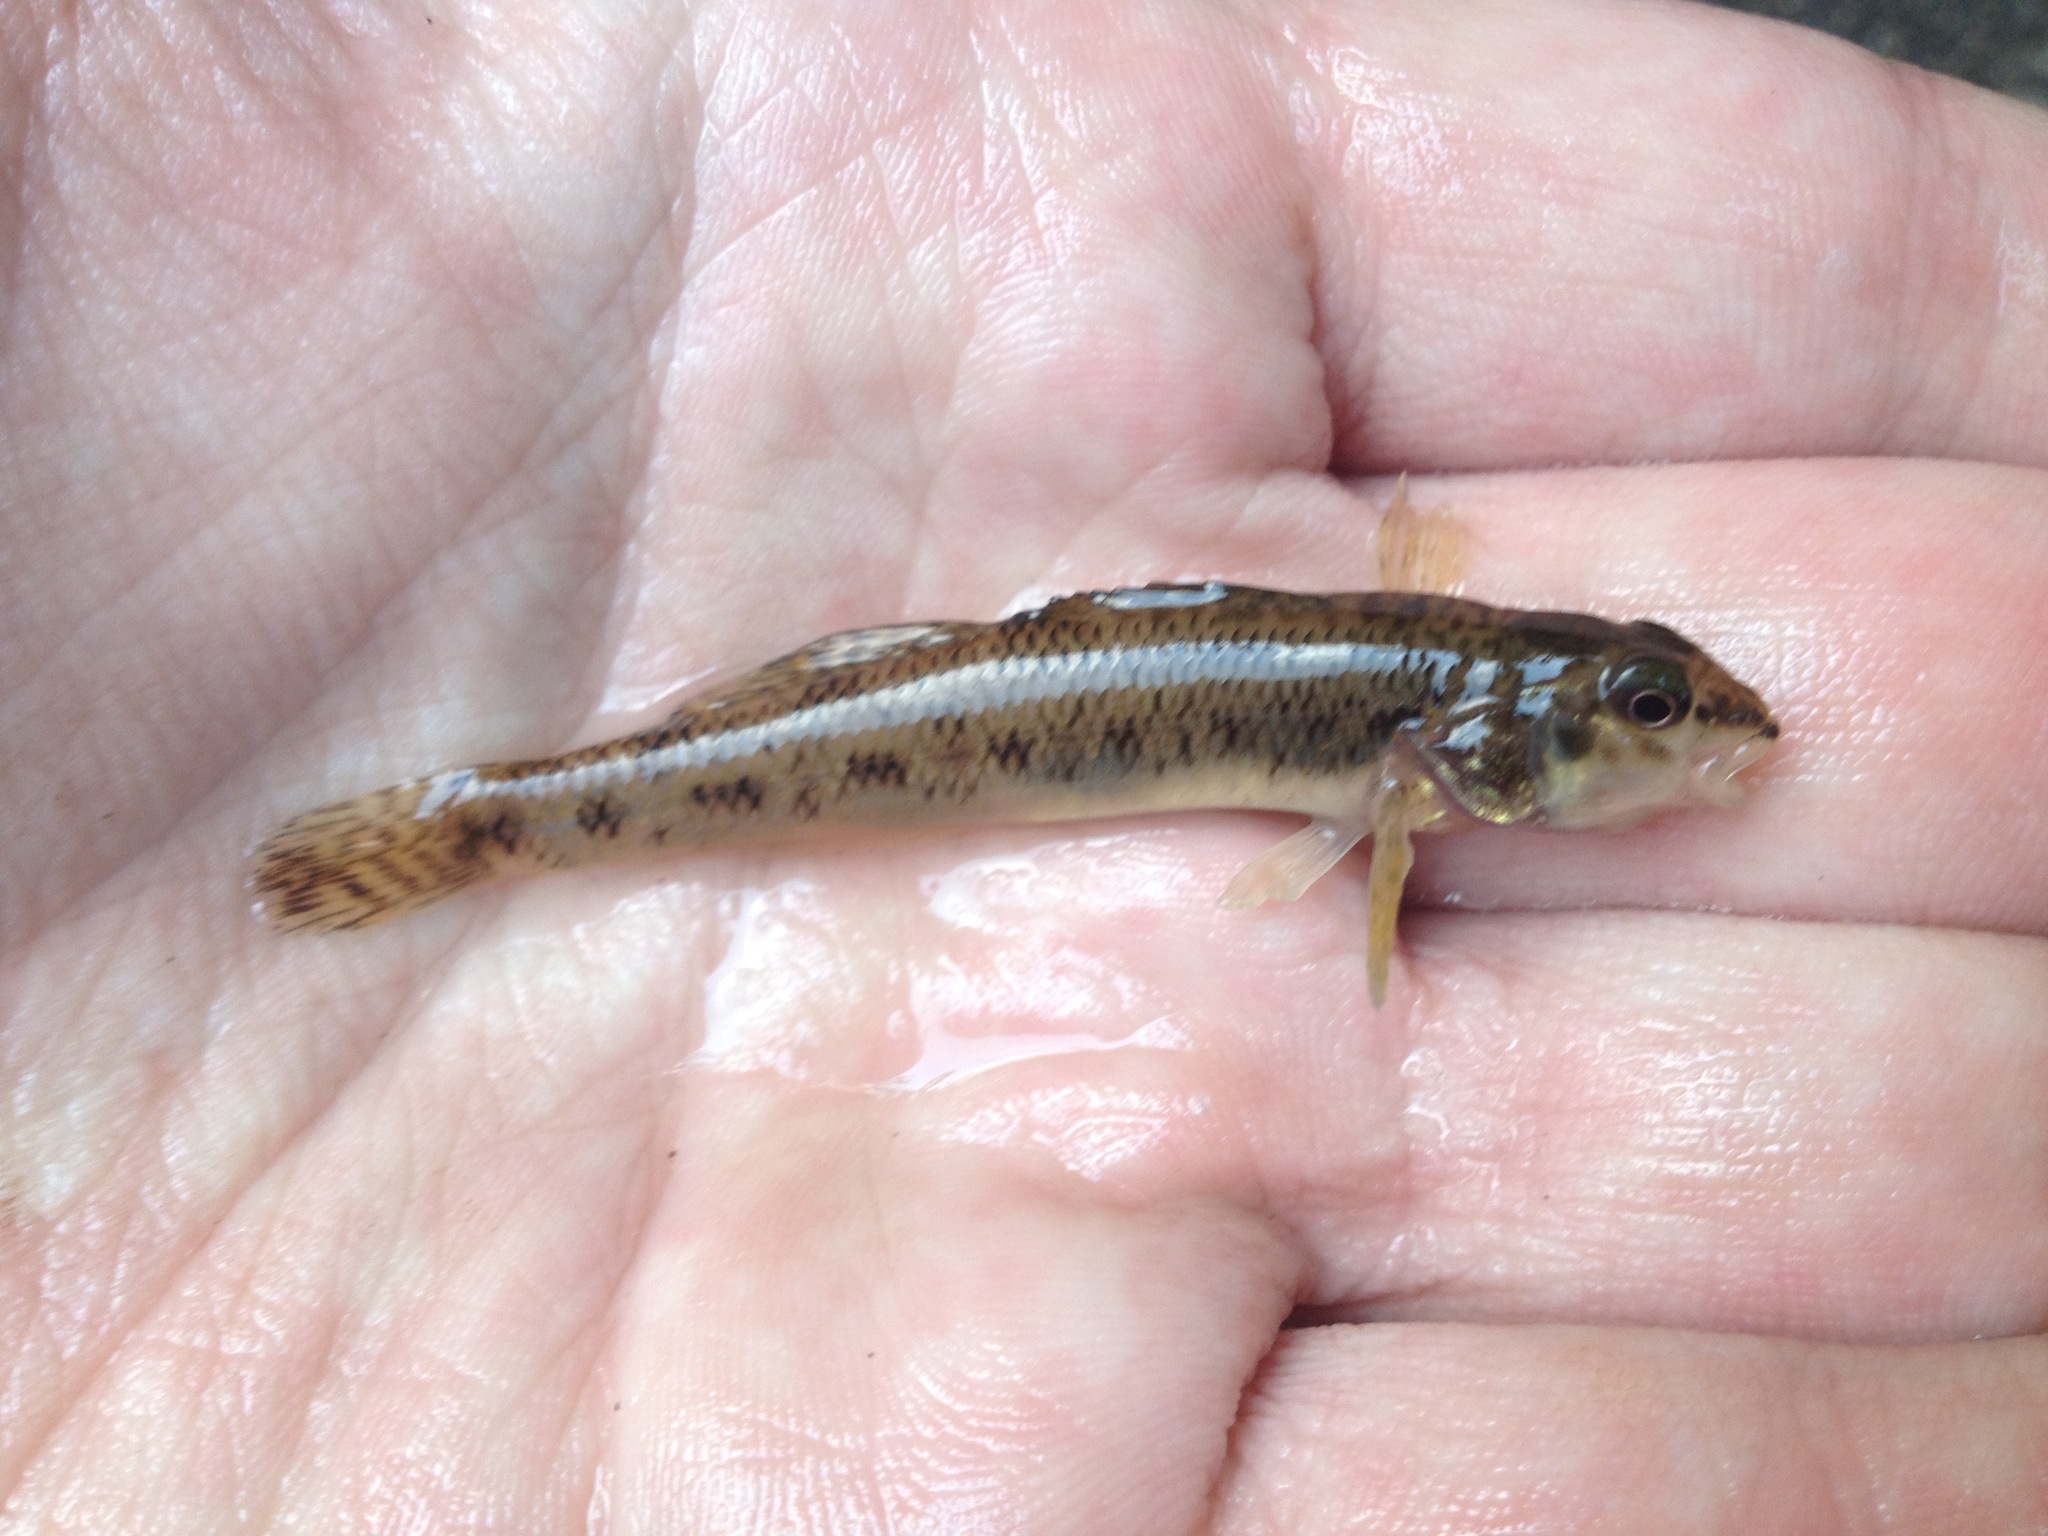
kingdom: Animalia
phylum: Chordata
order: Perciformes
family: Percidae
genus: Etheostoma
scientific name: Etheostoma nigrum
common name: Johnny darter
